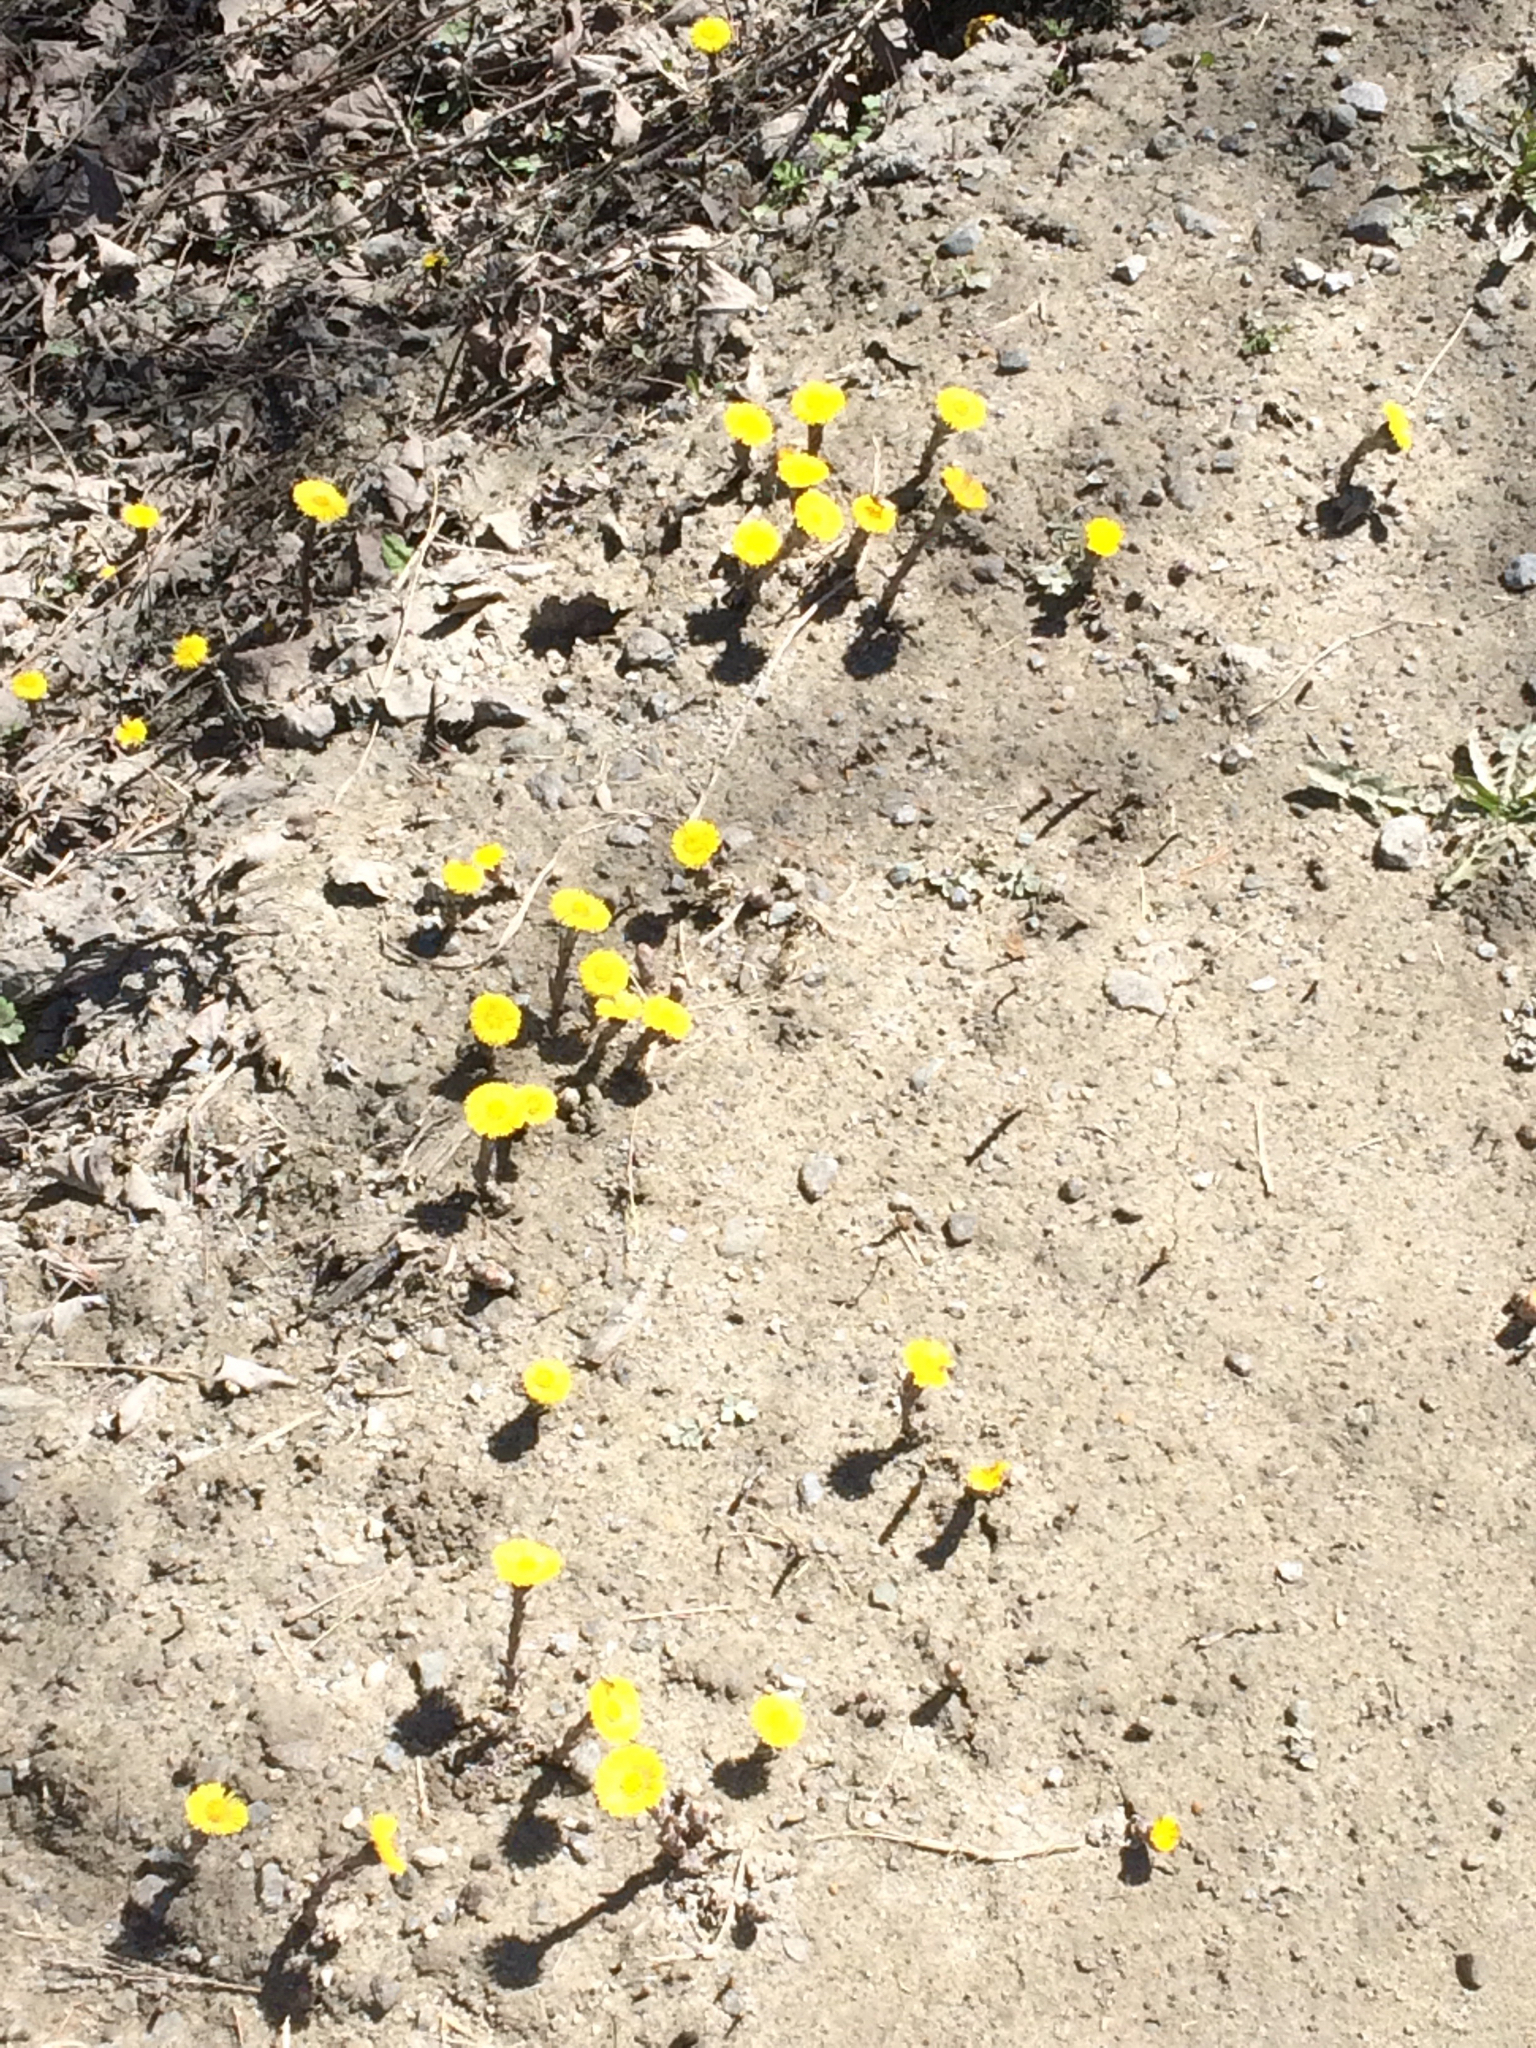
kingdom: Plantae
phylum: Tracheophyta
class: Magnoliopsida
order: Asterales
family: Asteraceae
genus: Tussilago
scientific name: Tussilago farfara
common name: Coltsfoot
